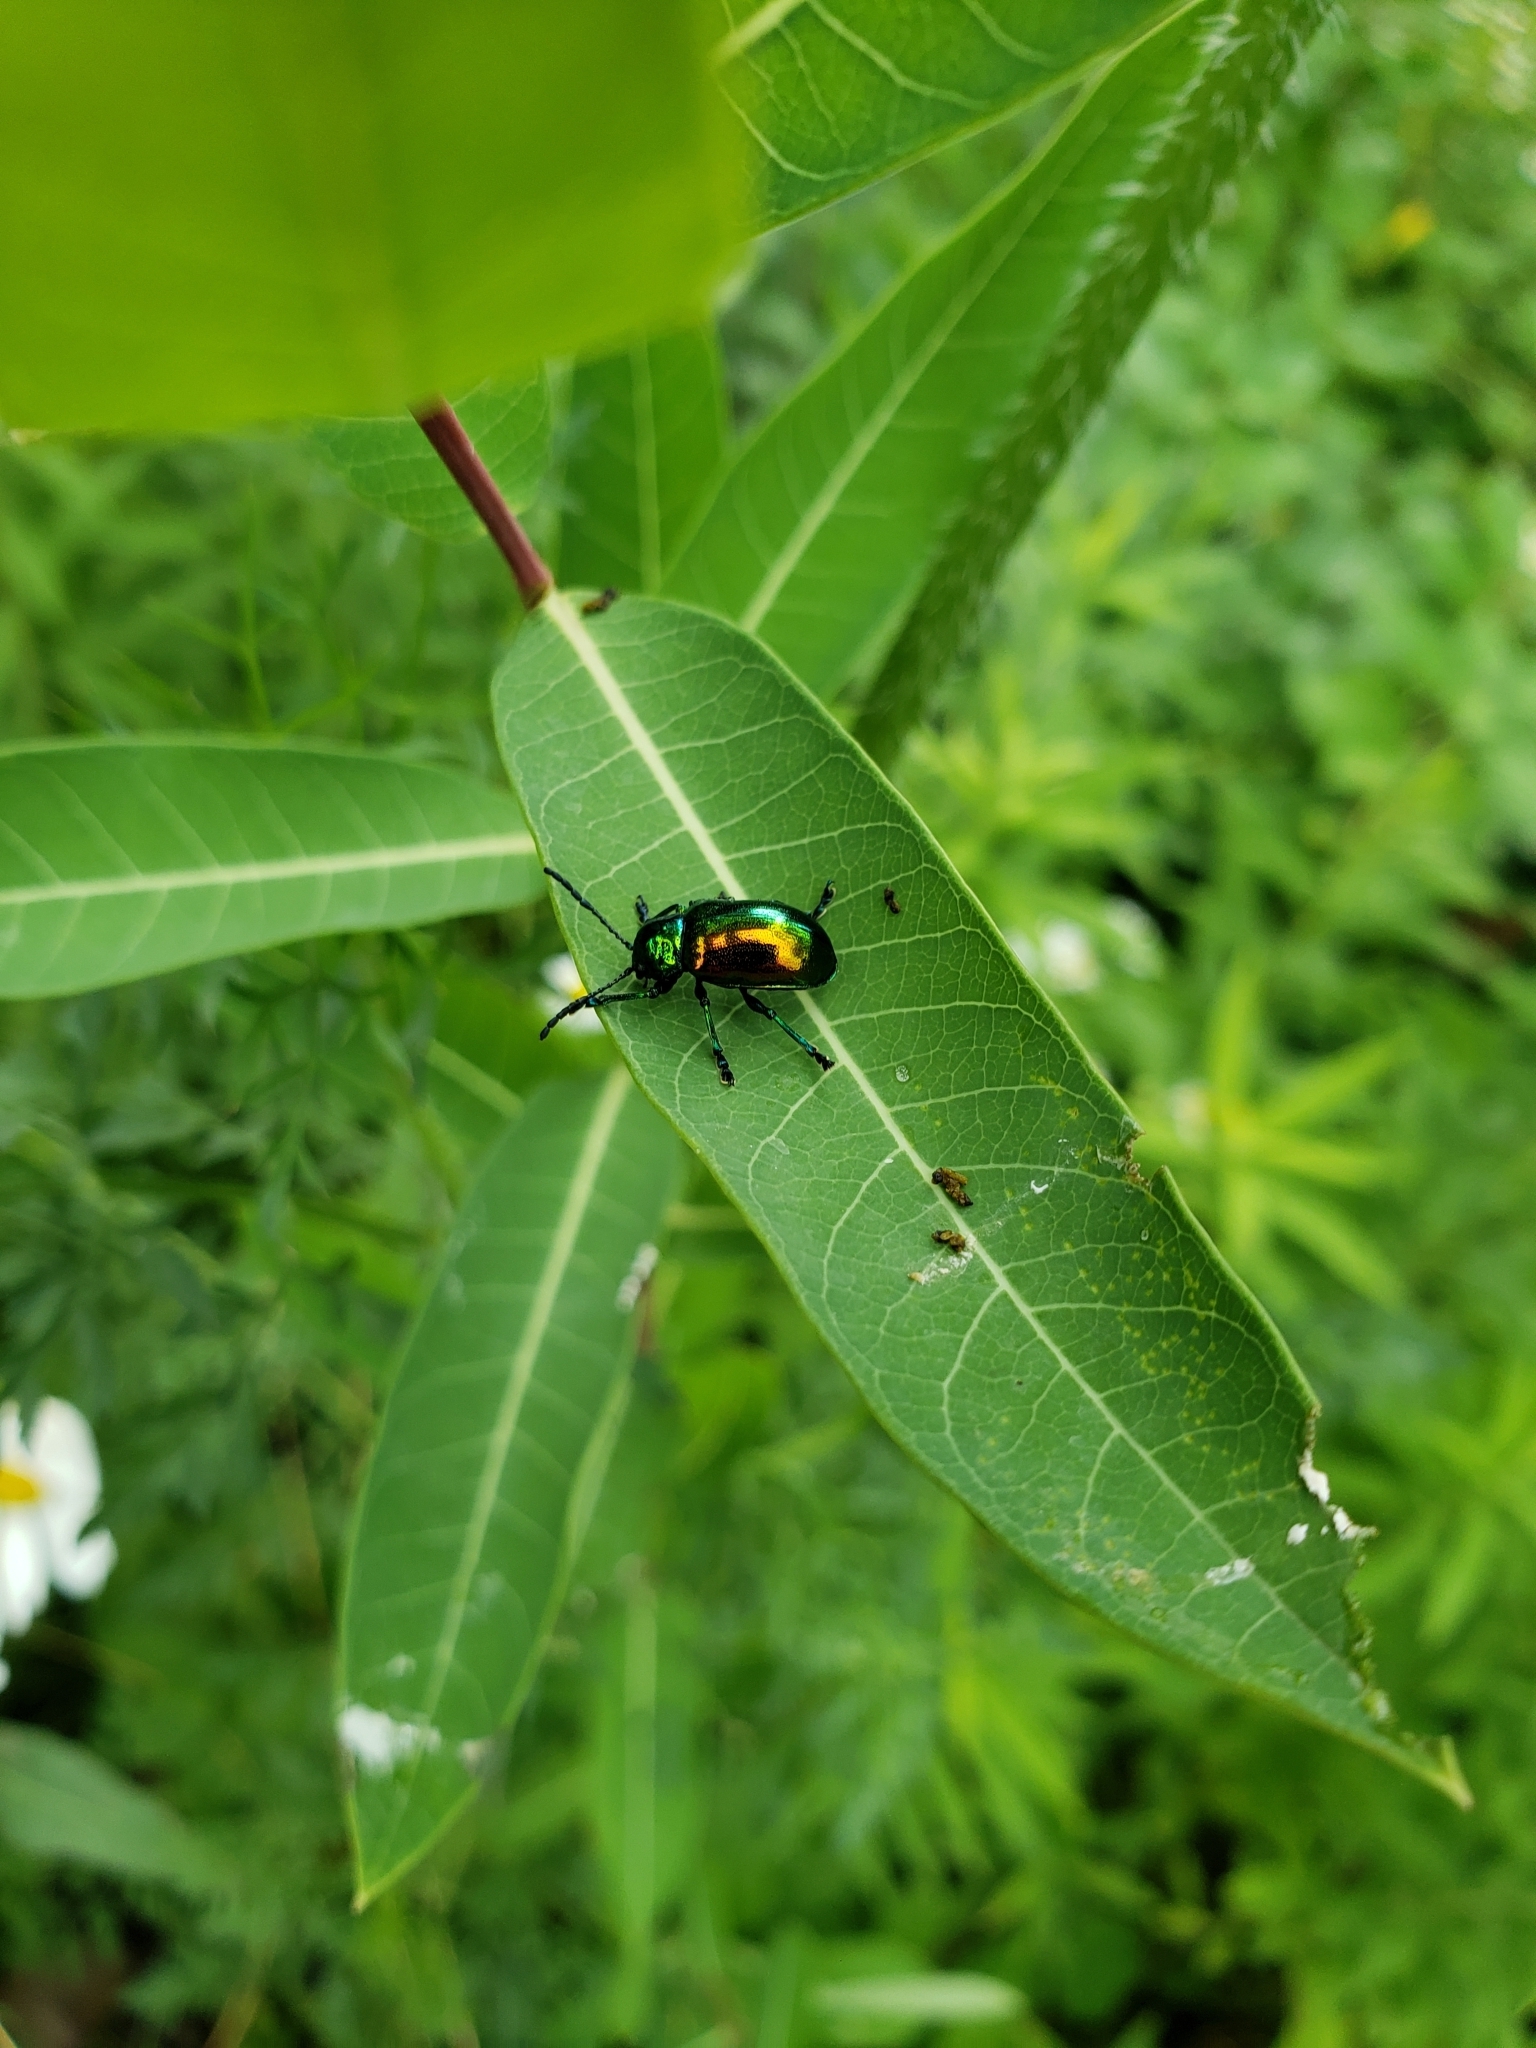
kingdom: Animalia
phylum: Arthropoda
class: Insecta
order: Coleoptera
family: Chrysomelidae
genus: Chrysochus
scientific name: Chrysochus auratus
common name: Dogbane leaf beetle
